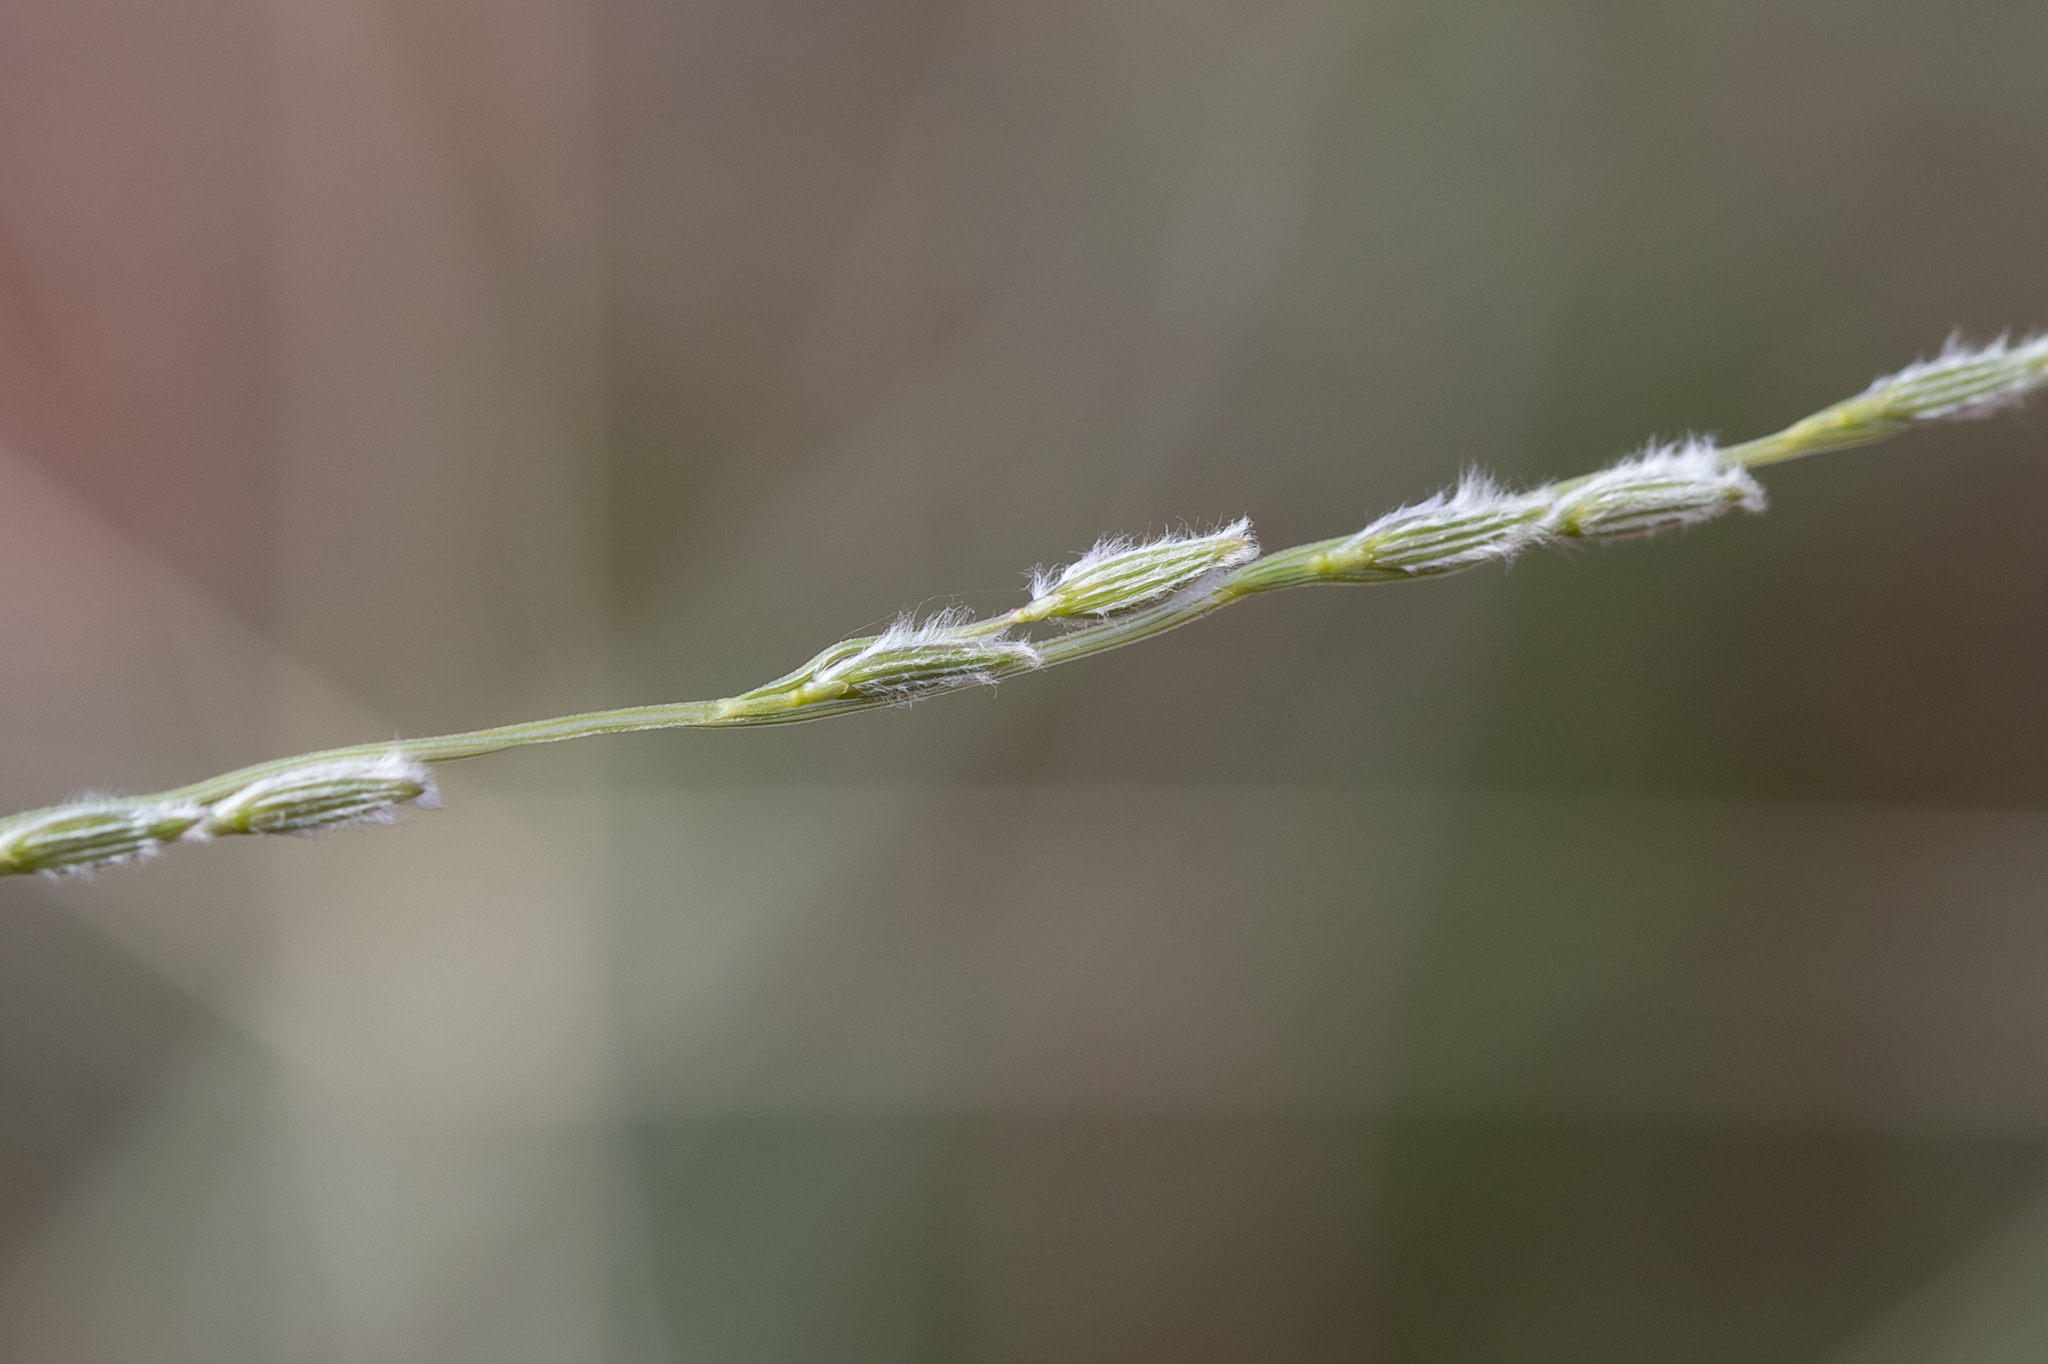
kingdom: Plantae
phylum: Tracheophyta
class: Liliopsida
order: Poales
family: Poaceae
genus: Digitaria
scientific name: Digitaria divaricatissima
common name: Crabgrass
